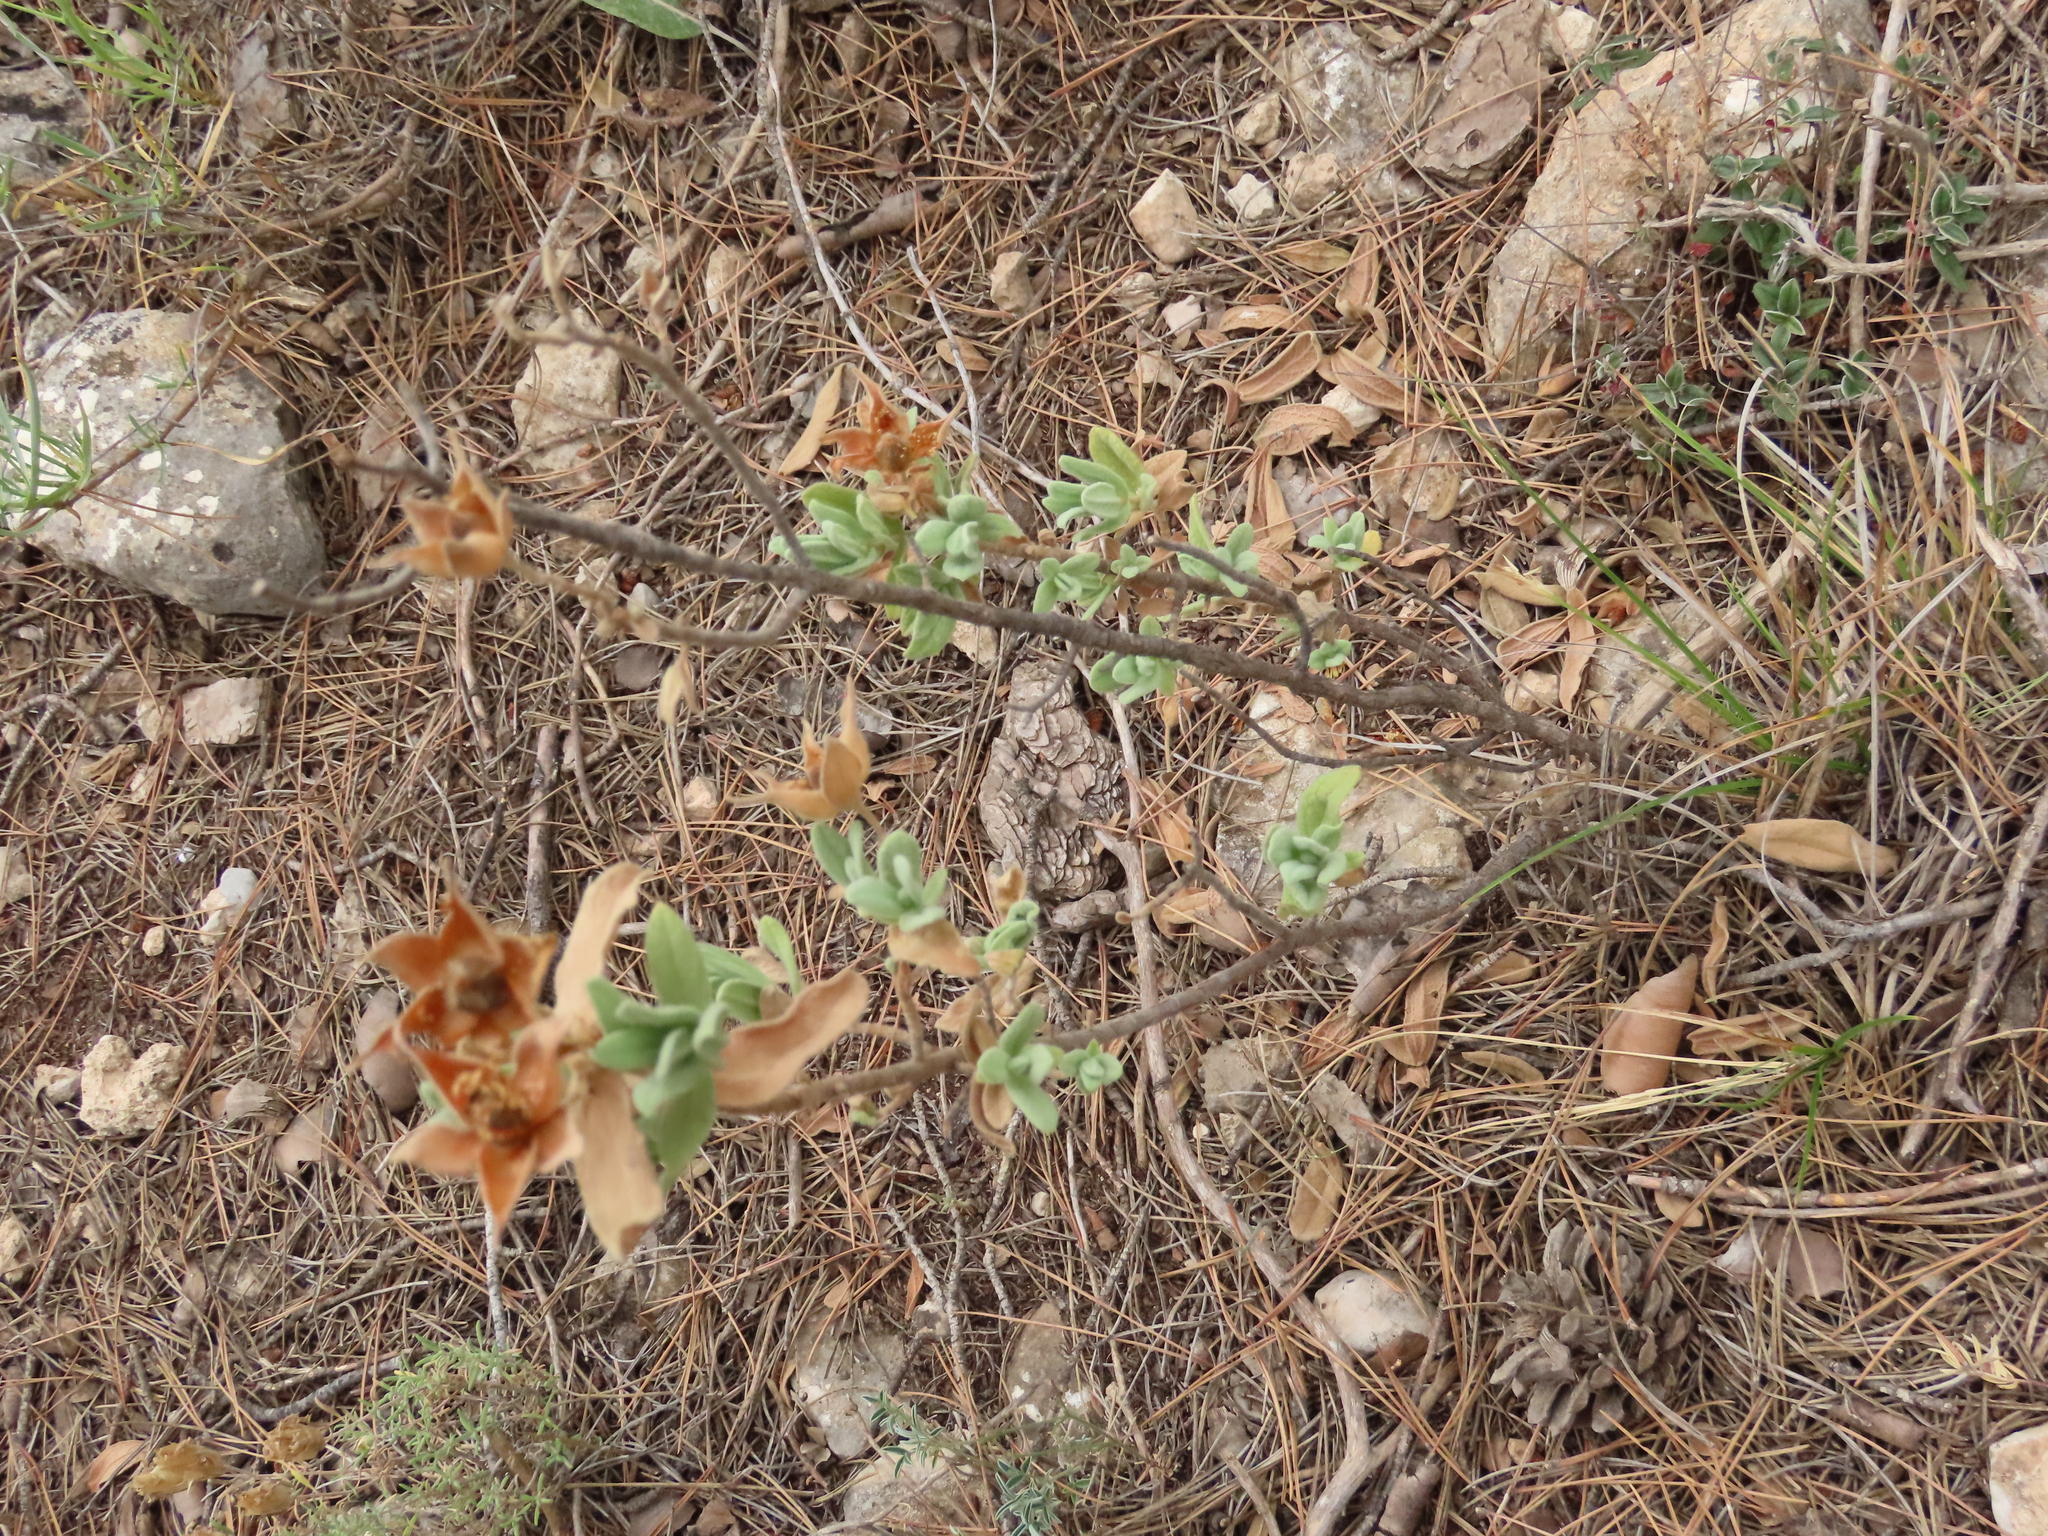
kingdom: Plantae
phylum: Tracheophyta
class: Magnoliopsida
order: Malvales
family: Cistaceae
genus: Cistus
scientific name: Cistus albidus
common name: White-leaf rock-rose
